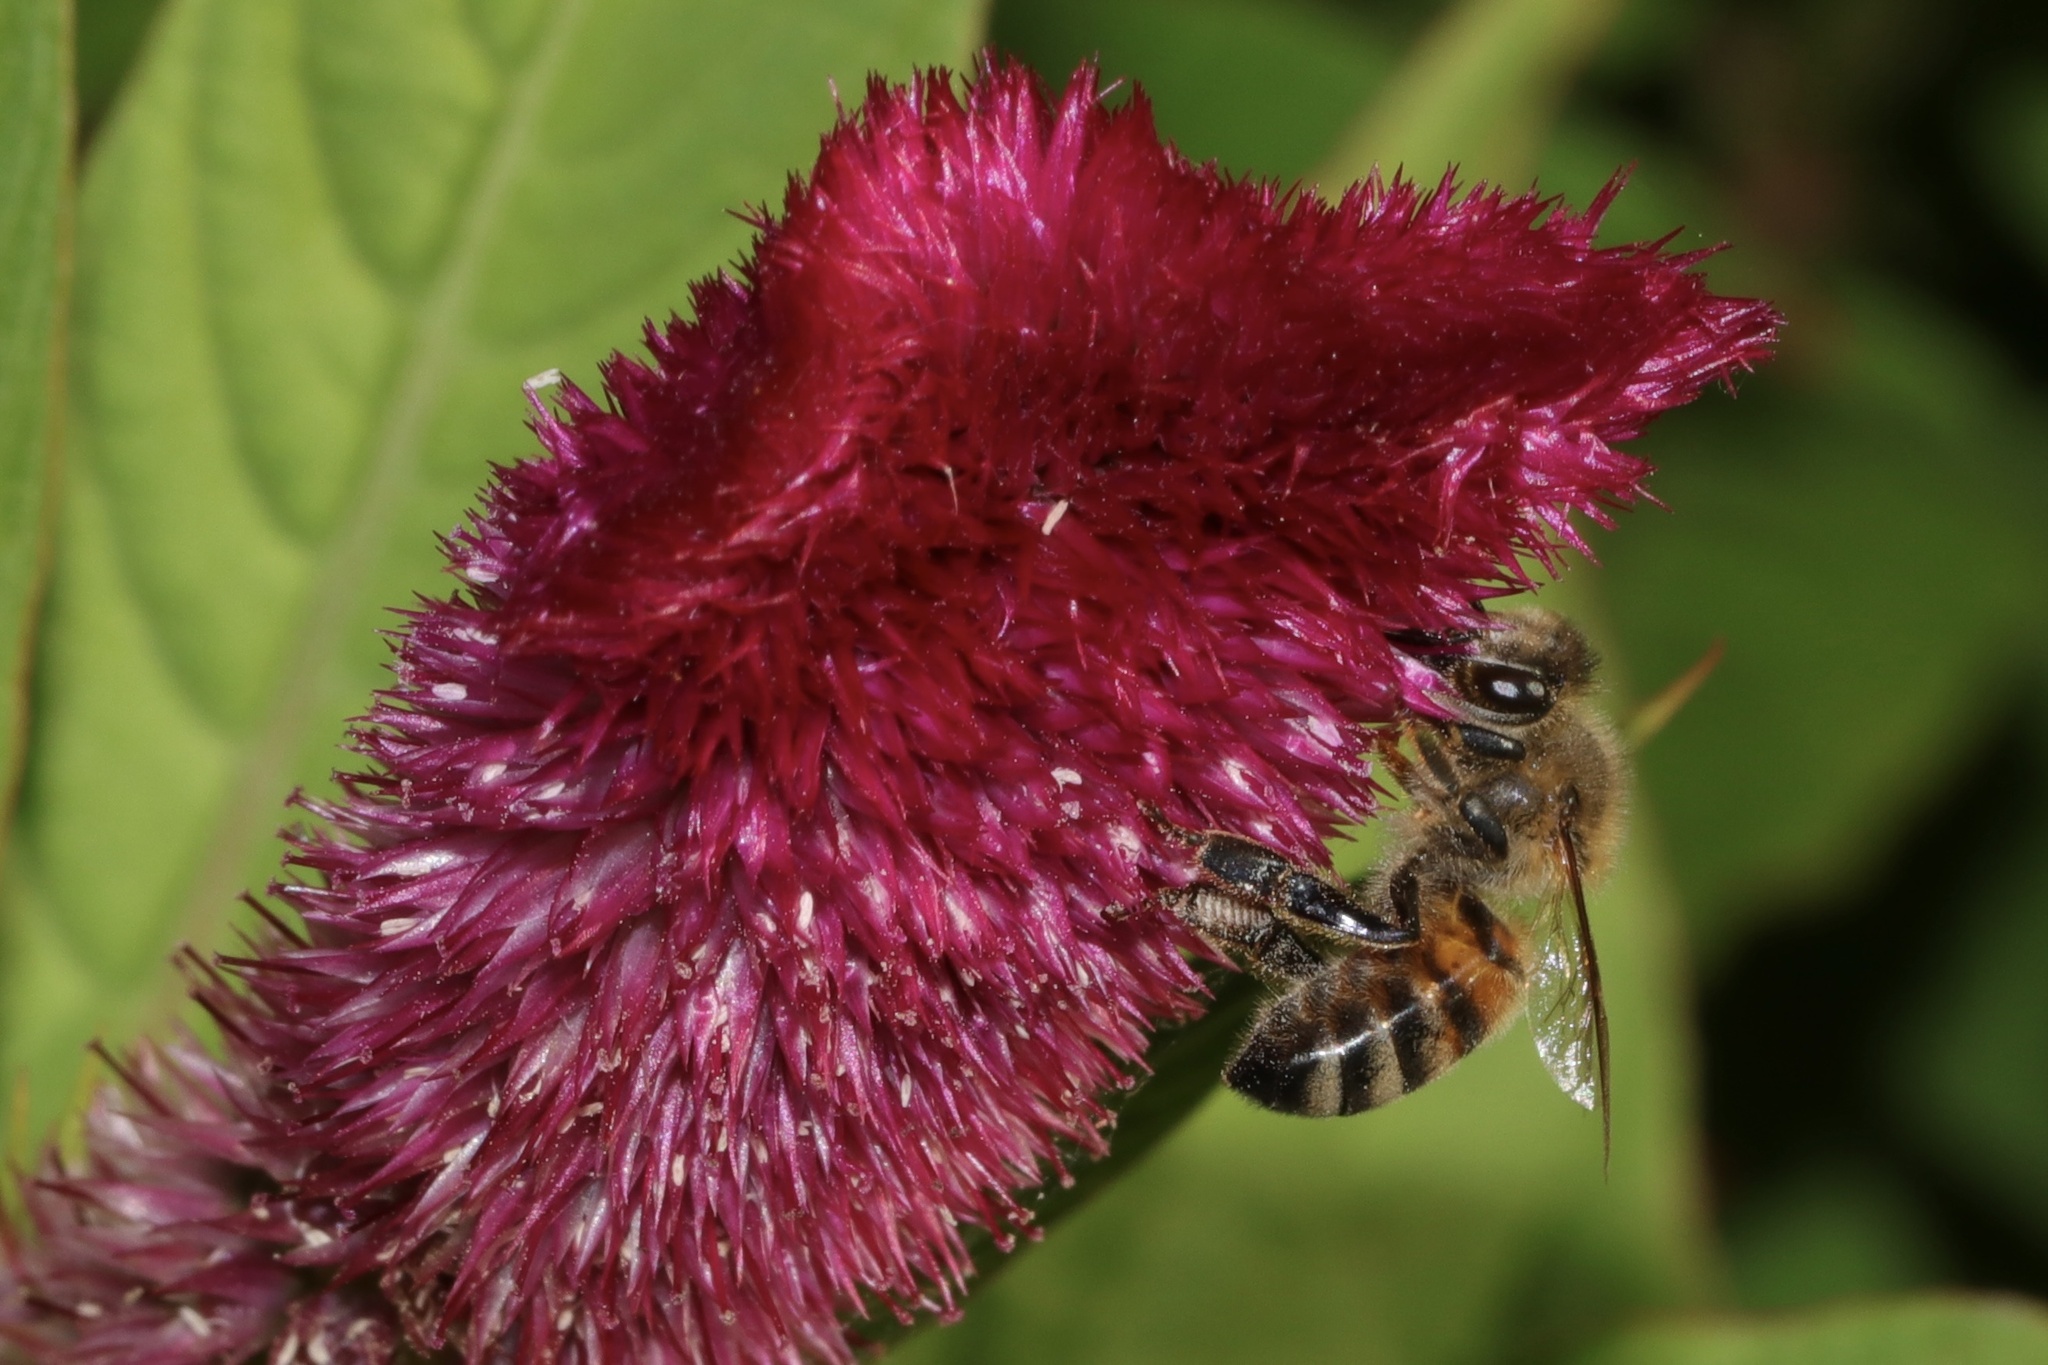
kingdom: Animalia
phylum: Arthropoda
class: Insecta
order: Hymenoptera
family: Apidae
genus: Apis
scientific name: Apis mellifera
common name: Honey bee
